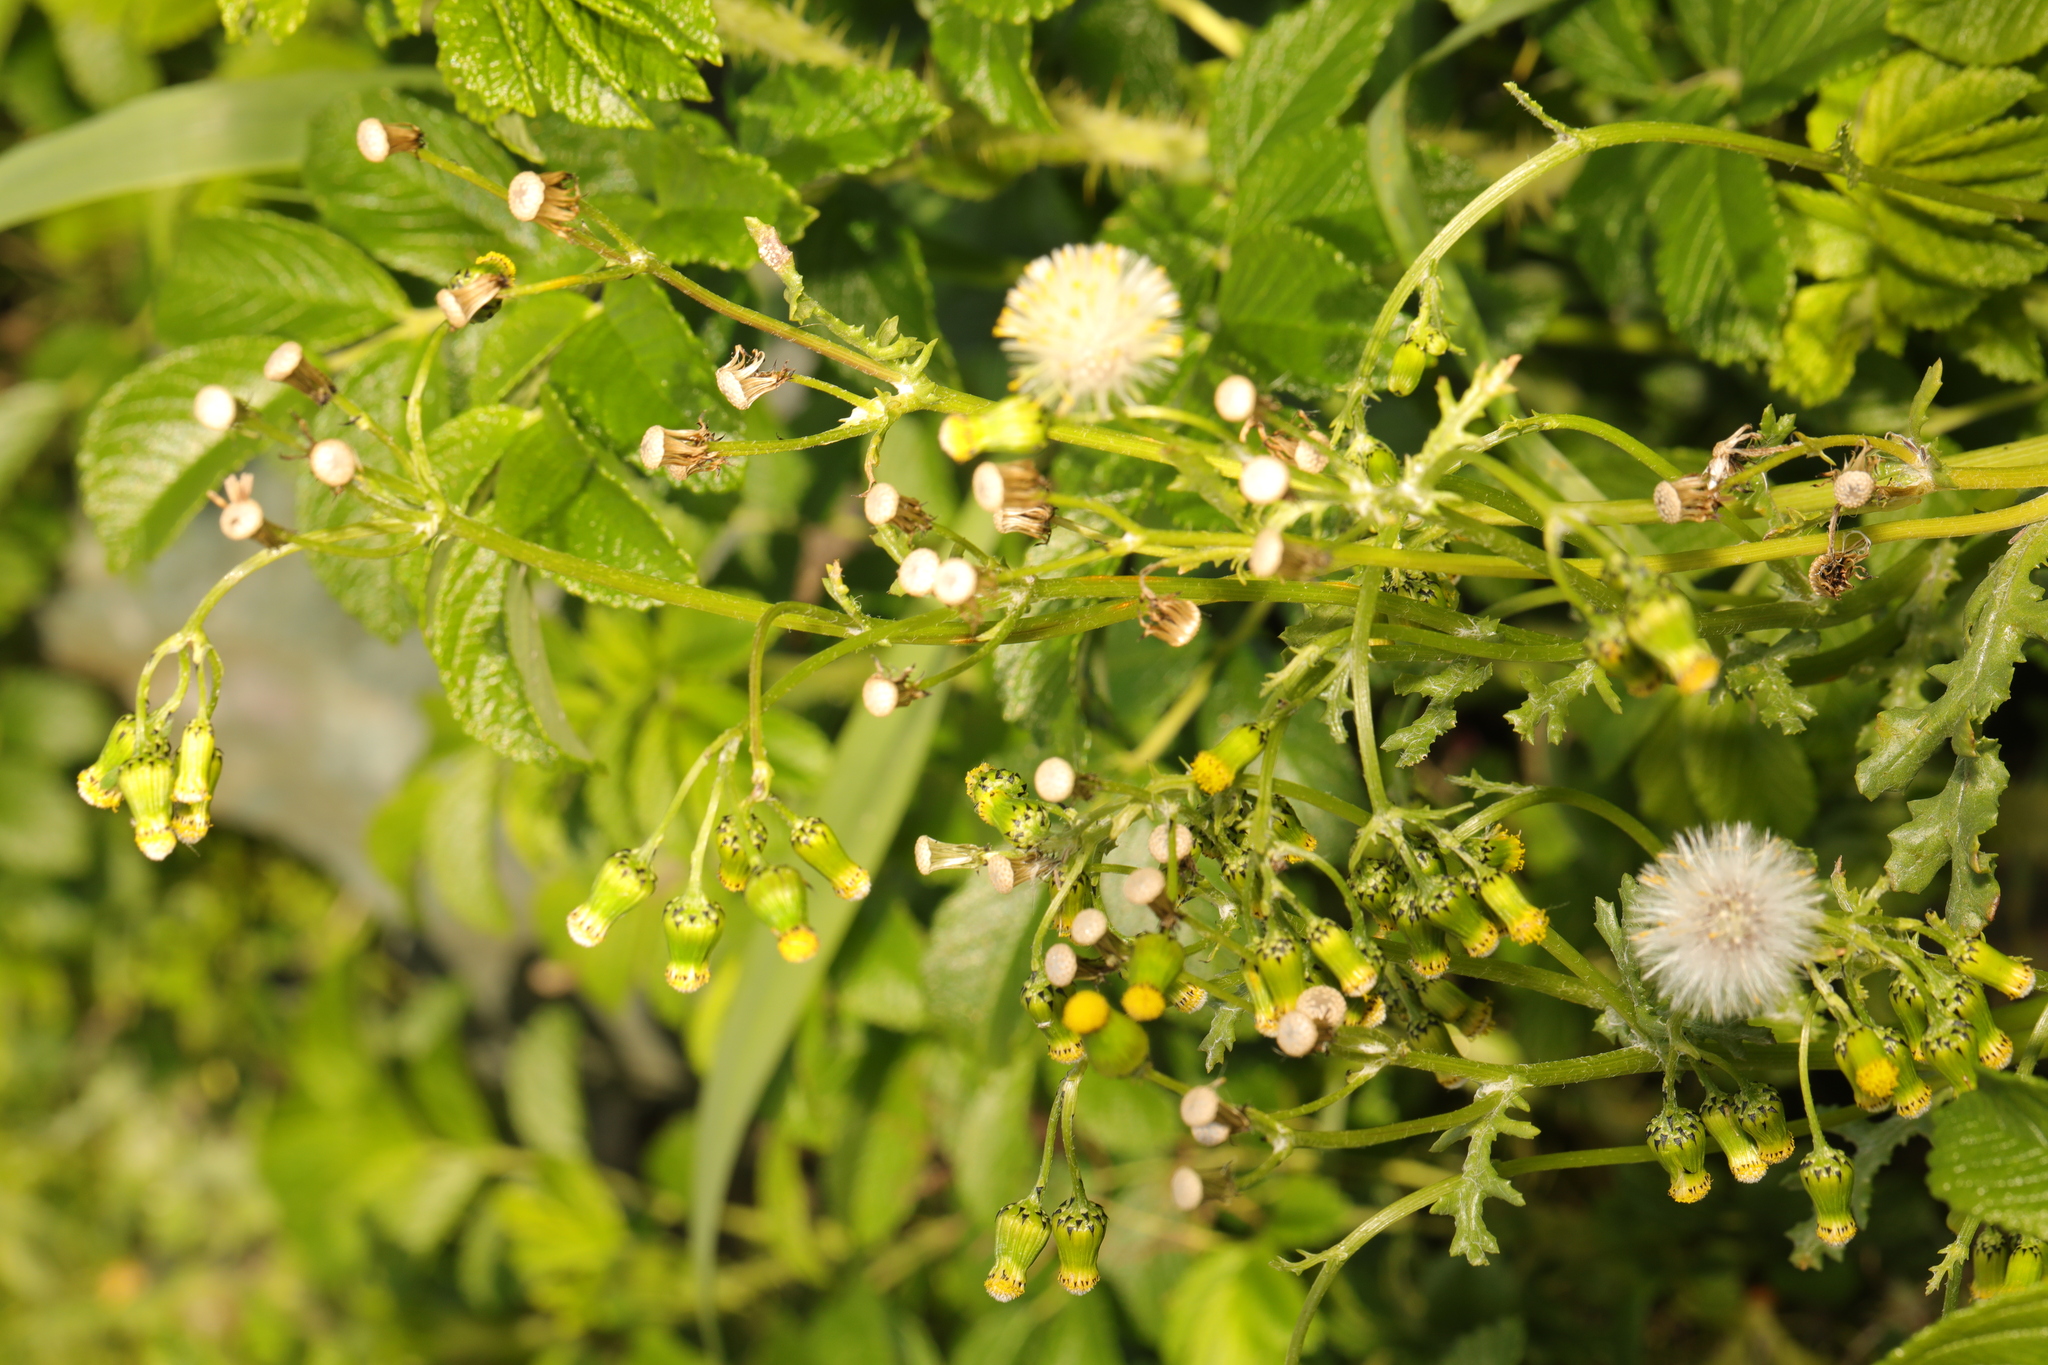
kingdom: Plantae
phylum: Tracheophyta
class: Magnoliopsida
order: Asterales
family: Asteraceae
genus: Senecio
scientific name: Senecio vulgaris
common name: Old-man-in-the-spring
